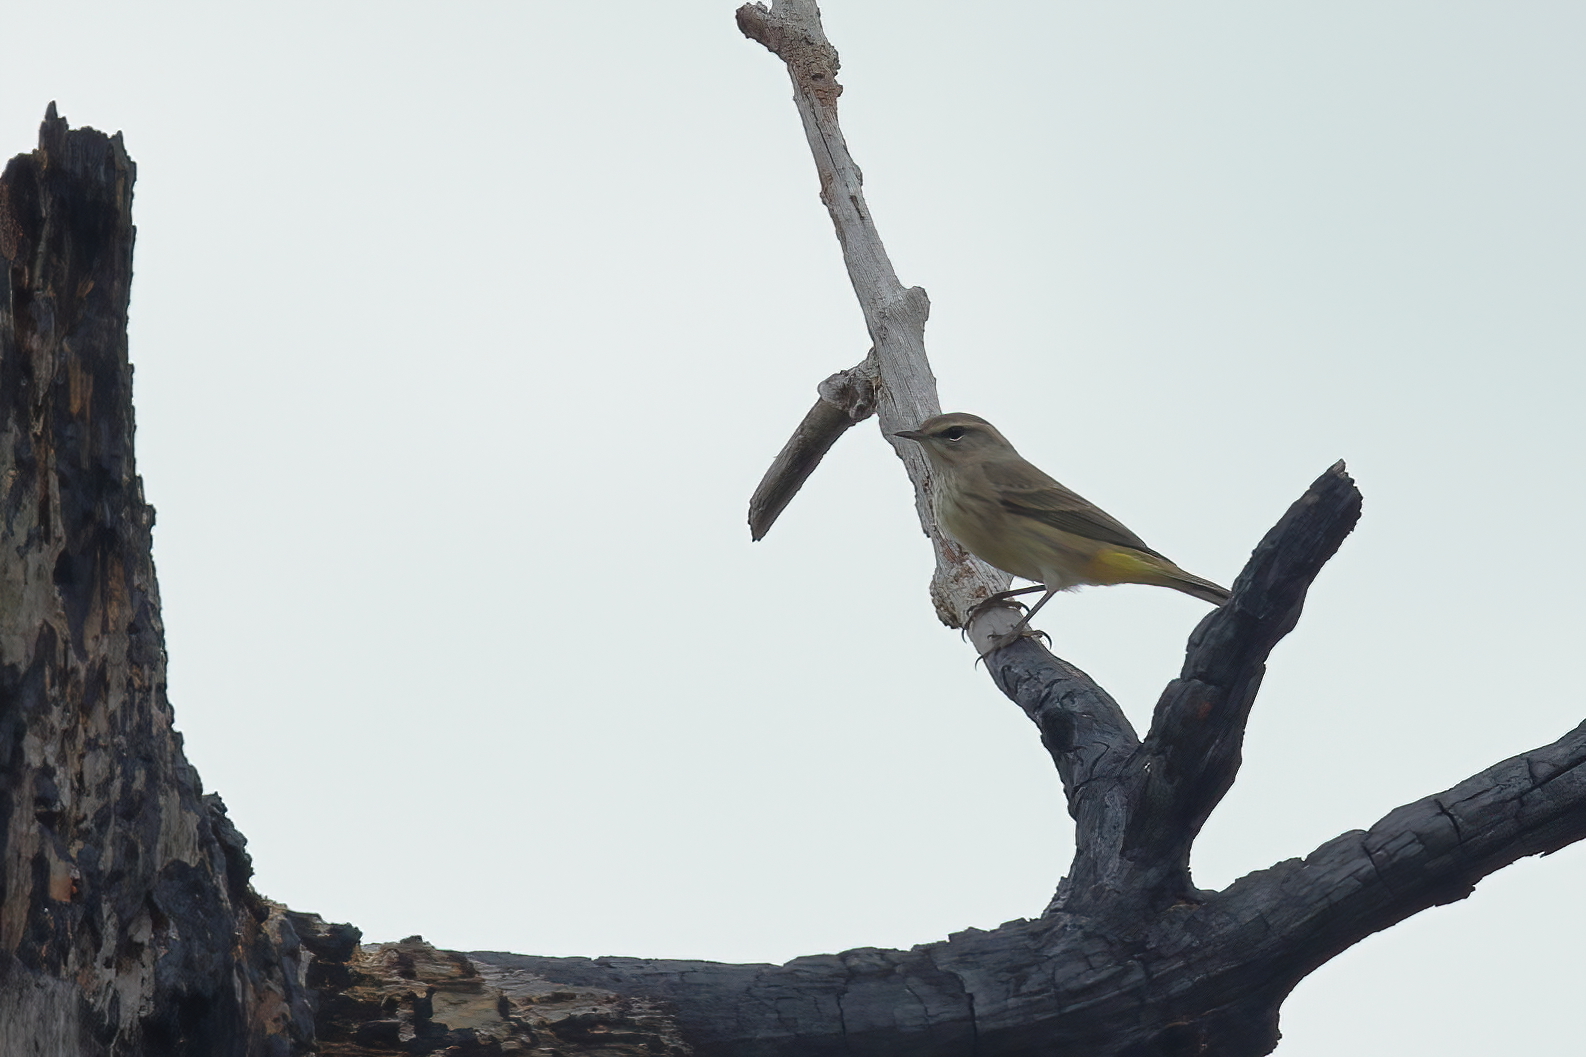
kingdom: Animalia
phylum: Chordata
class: Aves
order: Passeriformes
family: Parulidae
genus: Setophaga
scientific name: Setophaga palmarum
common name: Palm warbler
